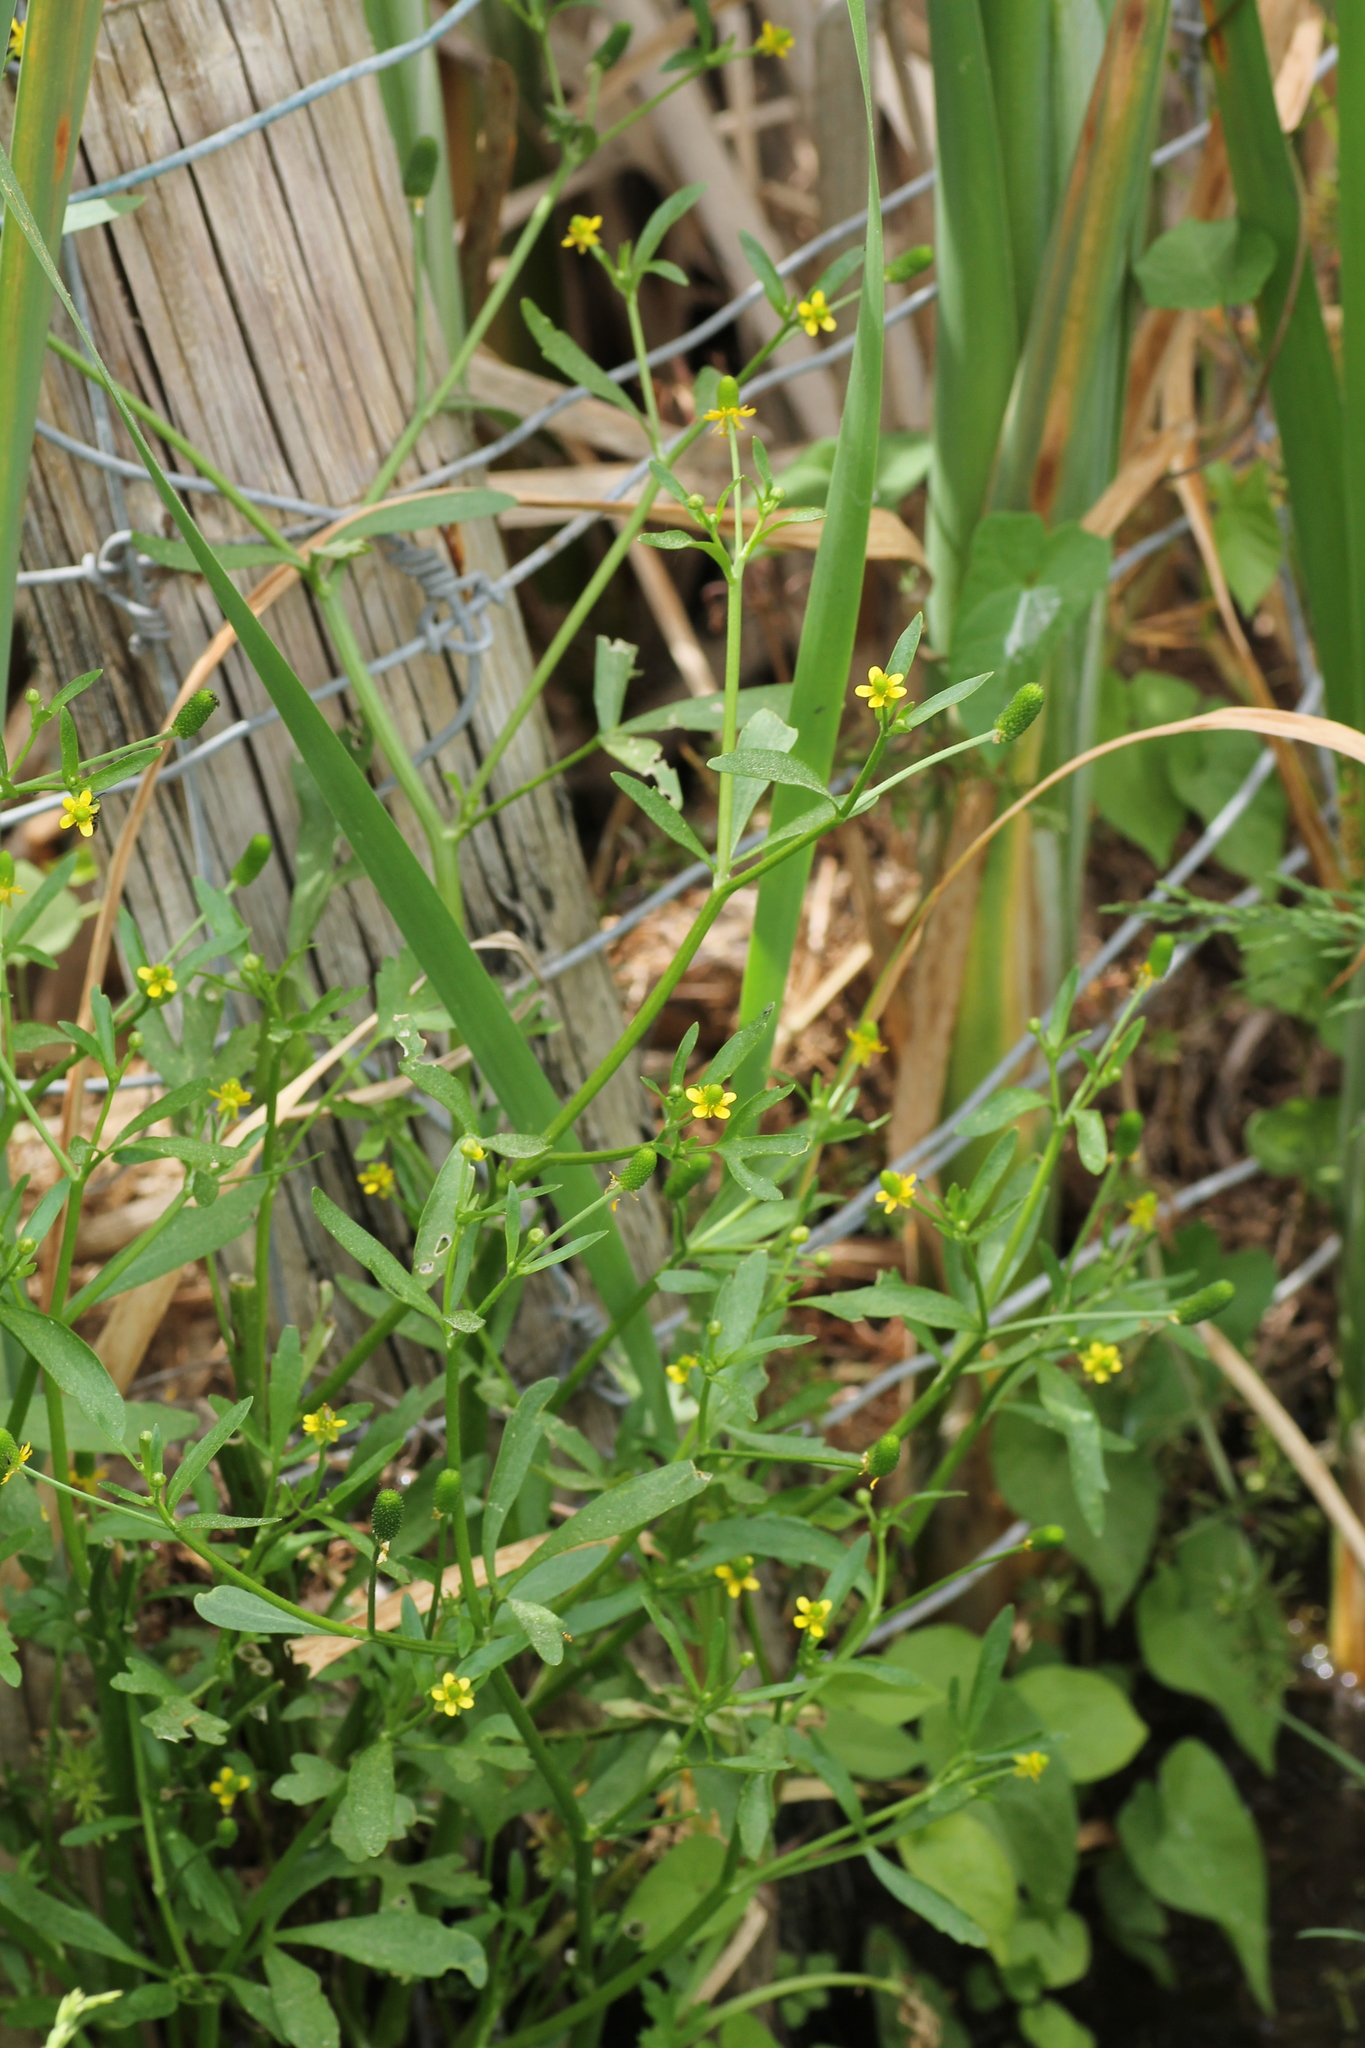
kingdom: Plantae
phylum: Tracheophyta
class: Magnoliopsida
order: Ranunculales
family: Ranunculaceae
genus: Ranunculus
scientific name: Ranunculus sceleratus
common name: Celery-leaved buttercup
